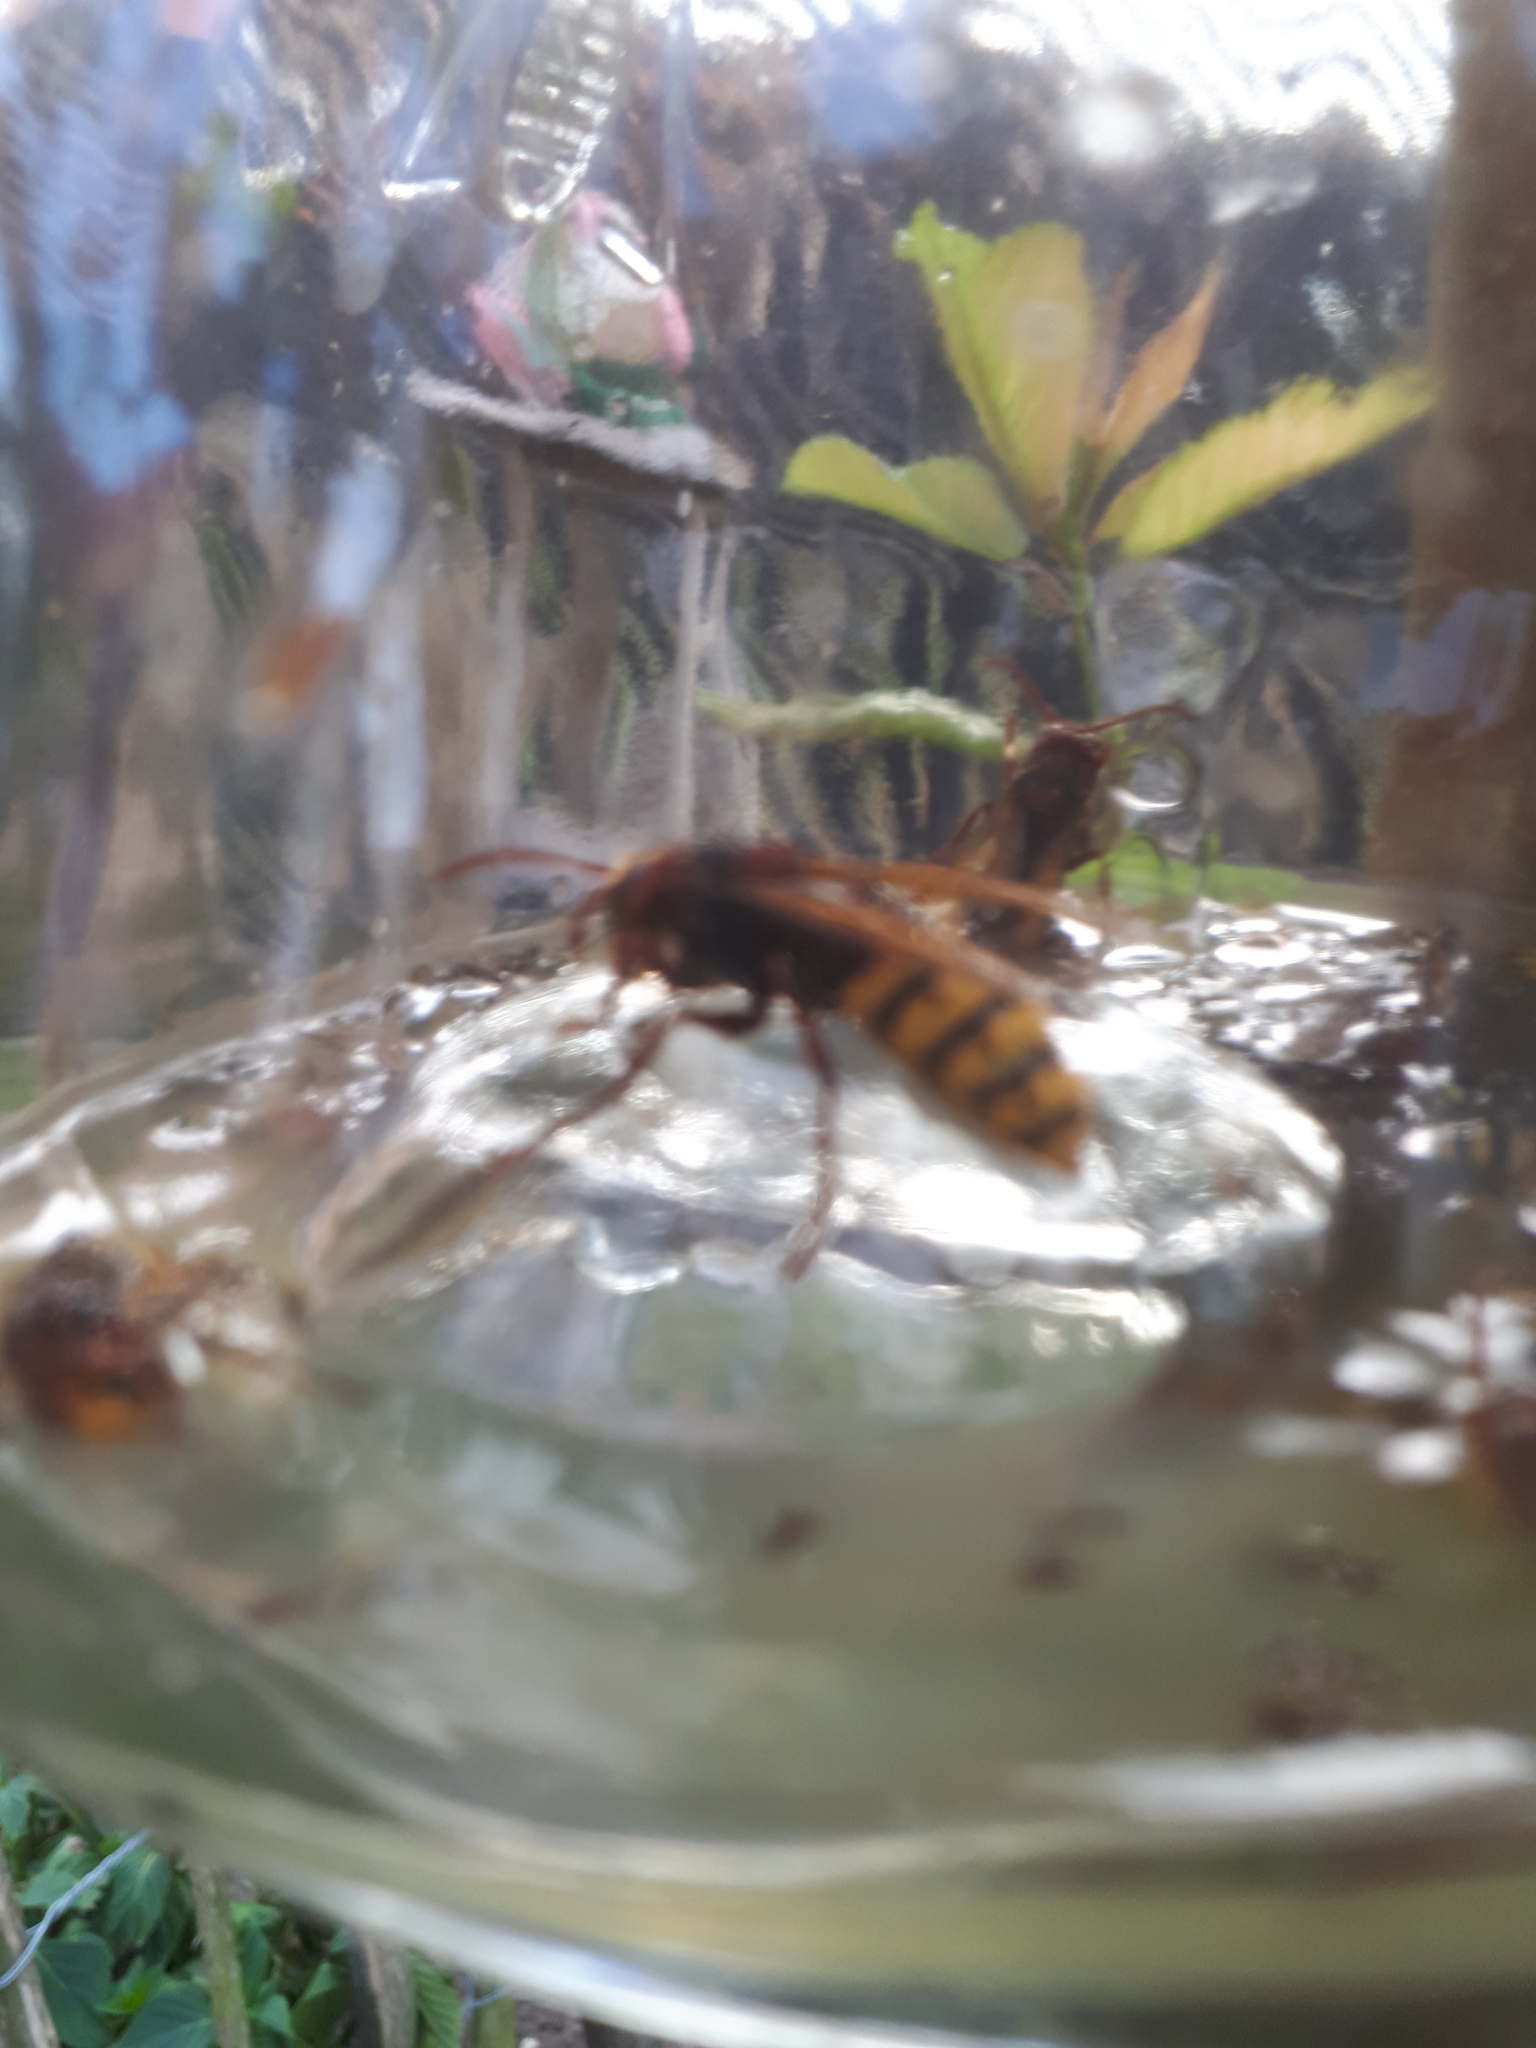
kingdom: Animalia
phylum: Arthropoda
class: Insecta
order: Hymenoptera
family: Vespidae
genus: Vespa
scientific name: Vespa crabro
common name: Hornet
